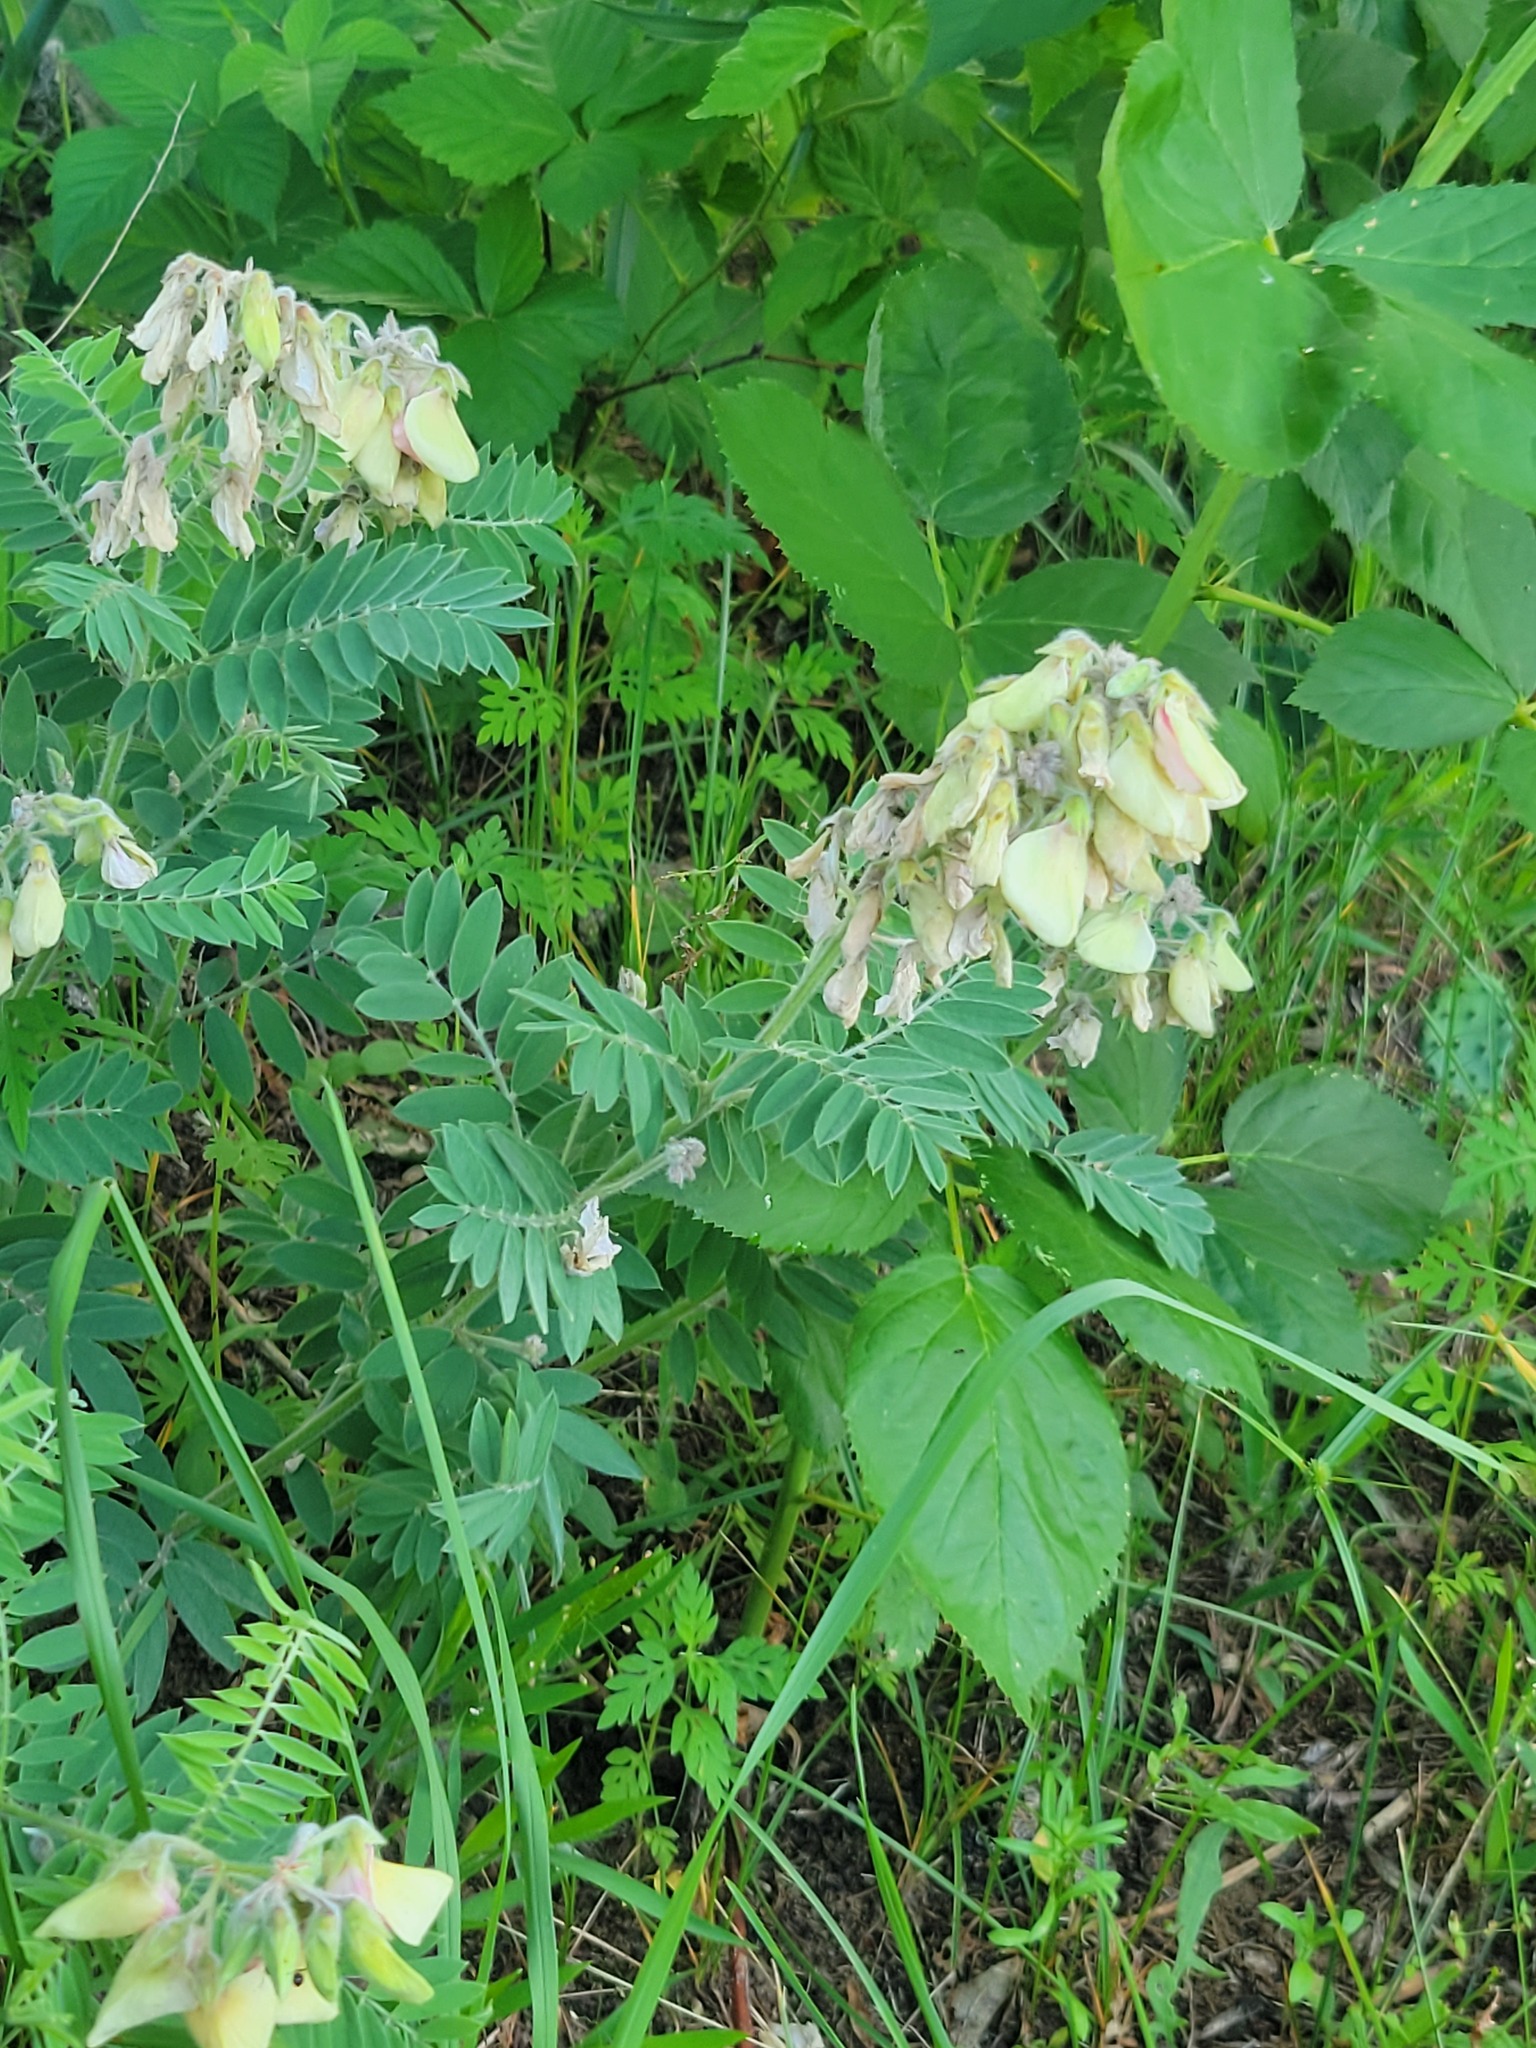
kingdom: Plantae
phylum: Tracheophyta
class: Magnoliopsida
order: Fabales
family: Fabaceae
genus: Tephrosia
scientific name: Tephrosia virginiana
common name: Rabbit-pea
